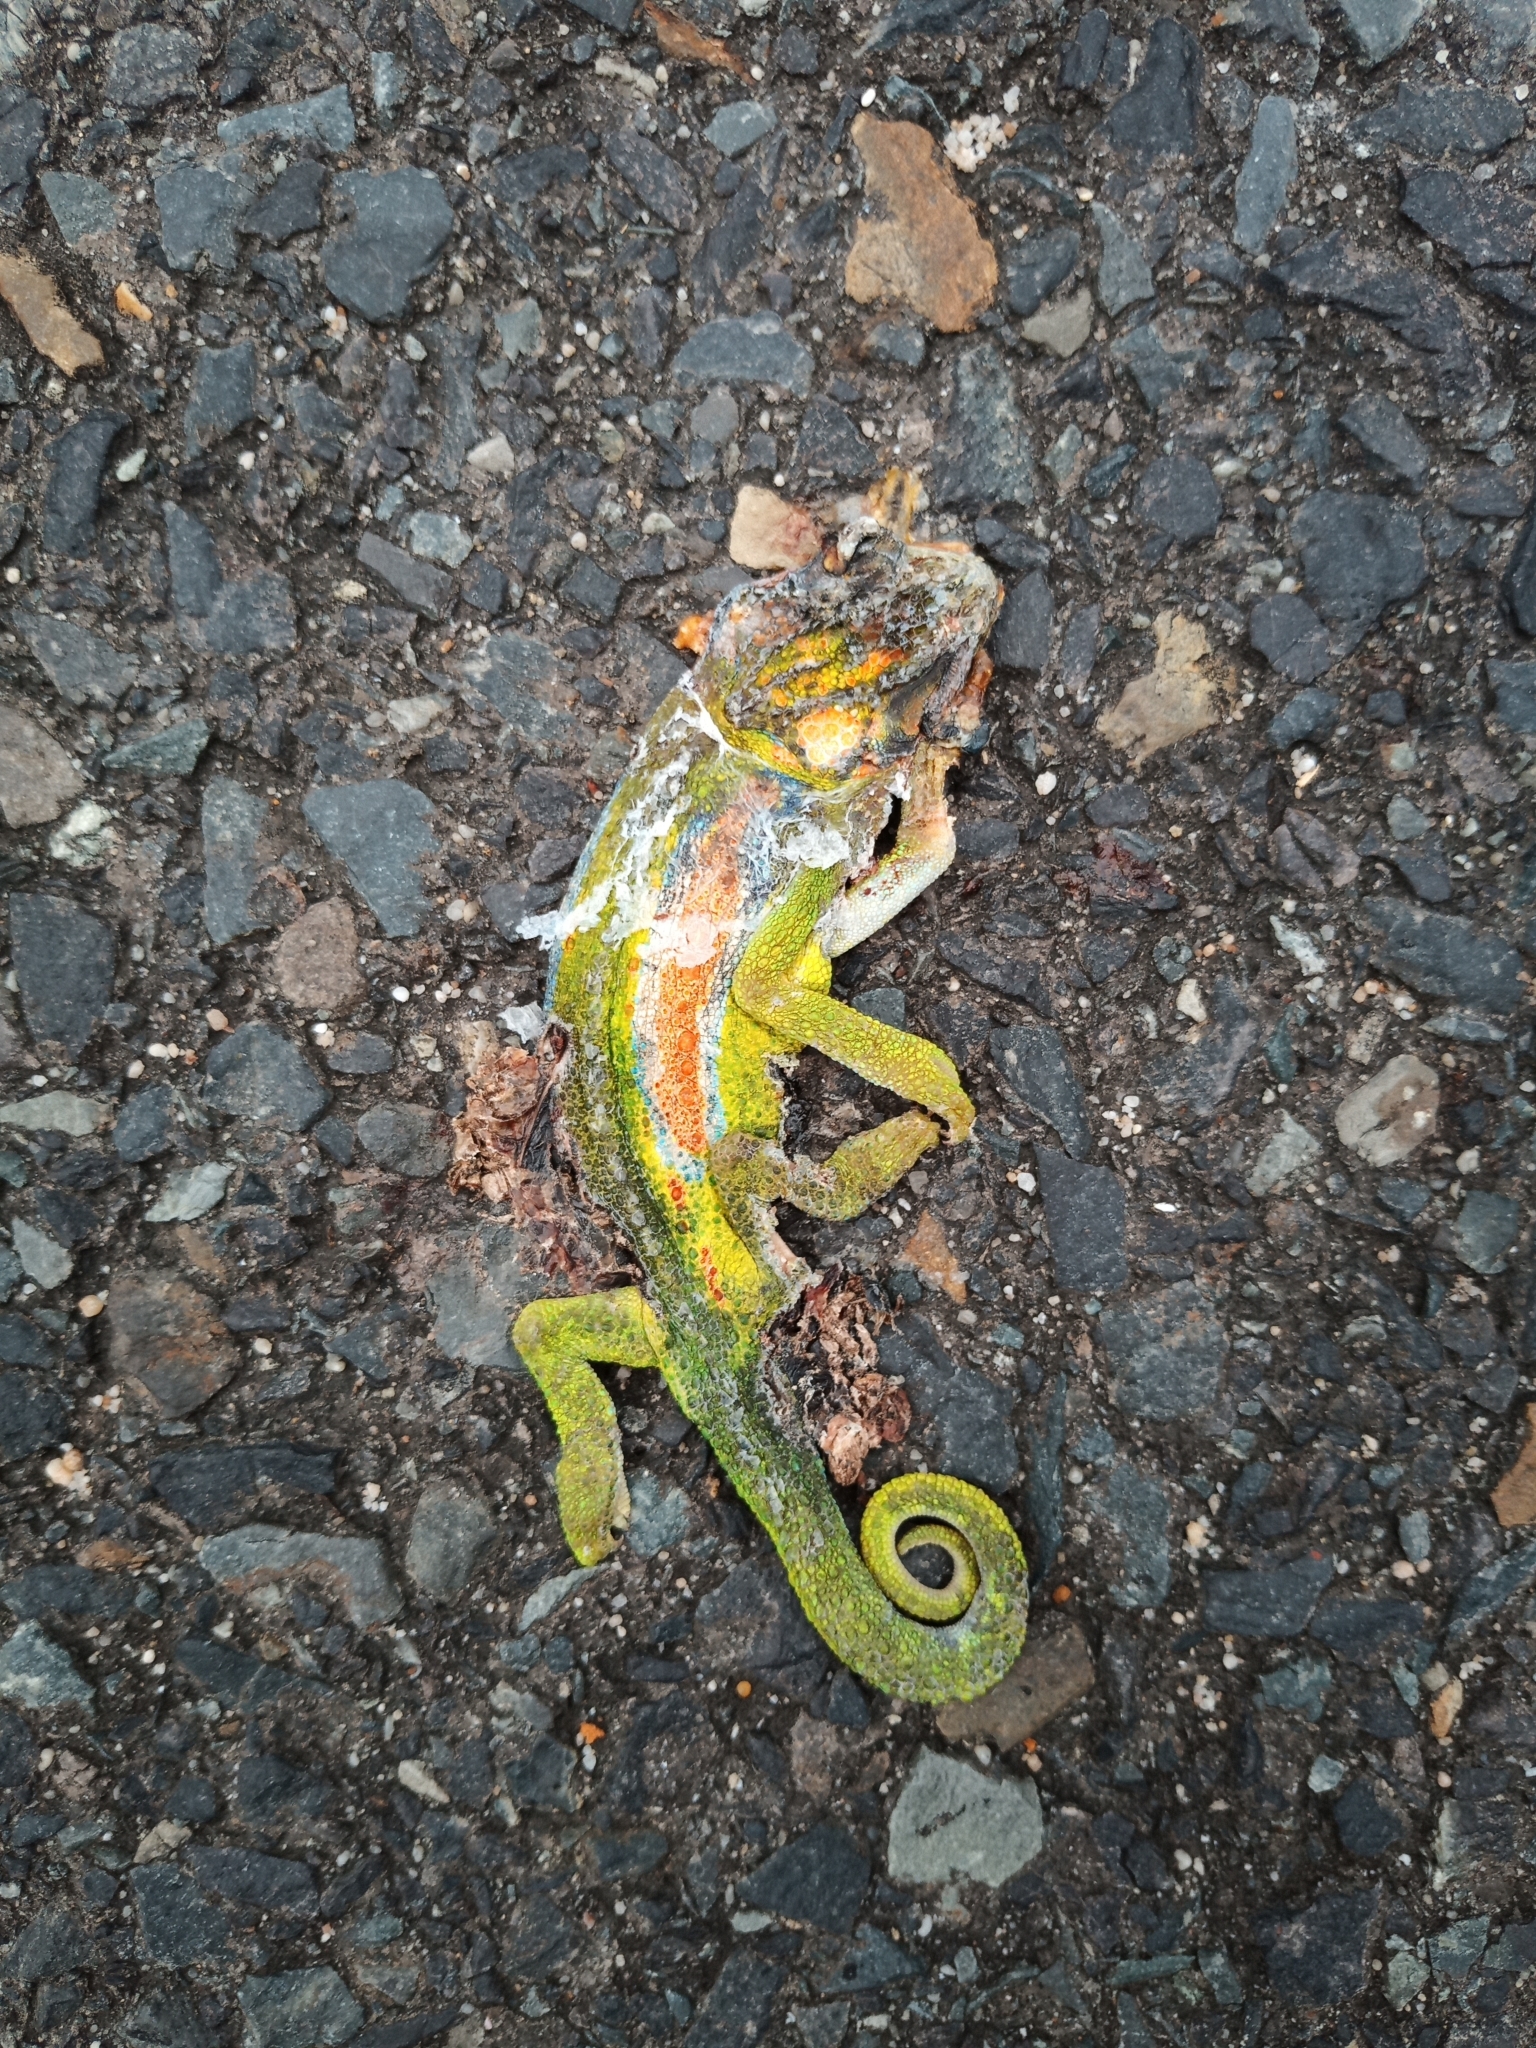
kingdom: Animalia
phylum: Chordata
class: Squamata
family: Chamaeleonidae
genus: Bradypodion
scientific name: Bradypodion pumilum
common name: Cape dwarf chameleon
